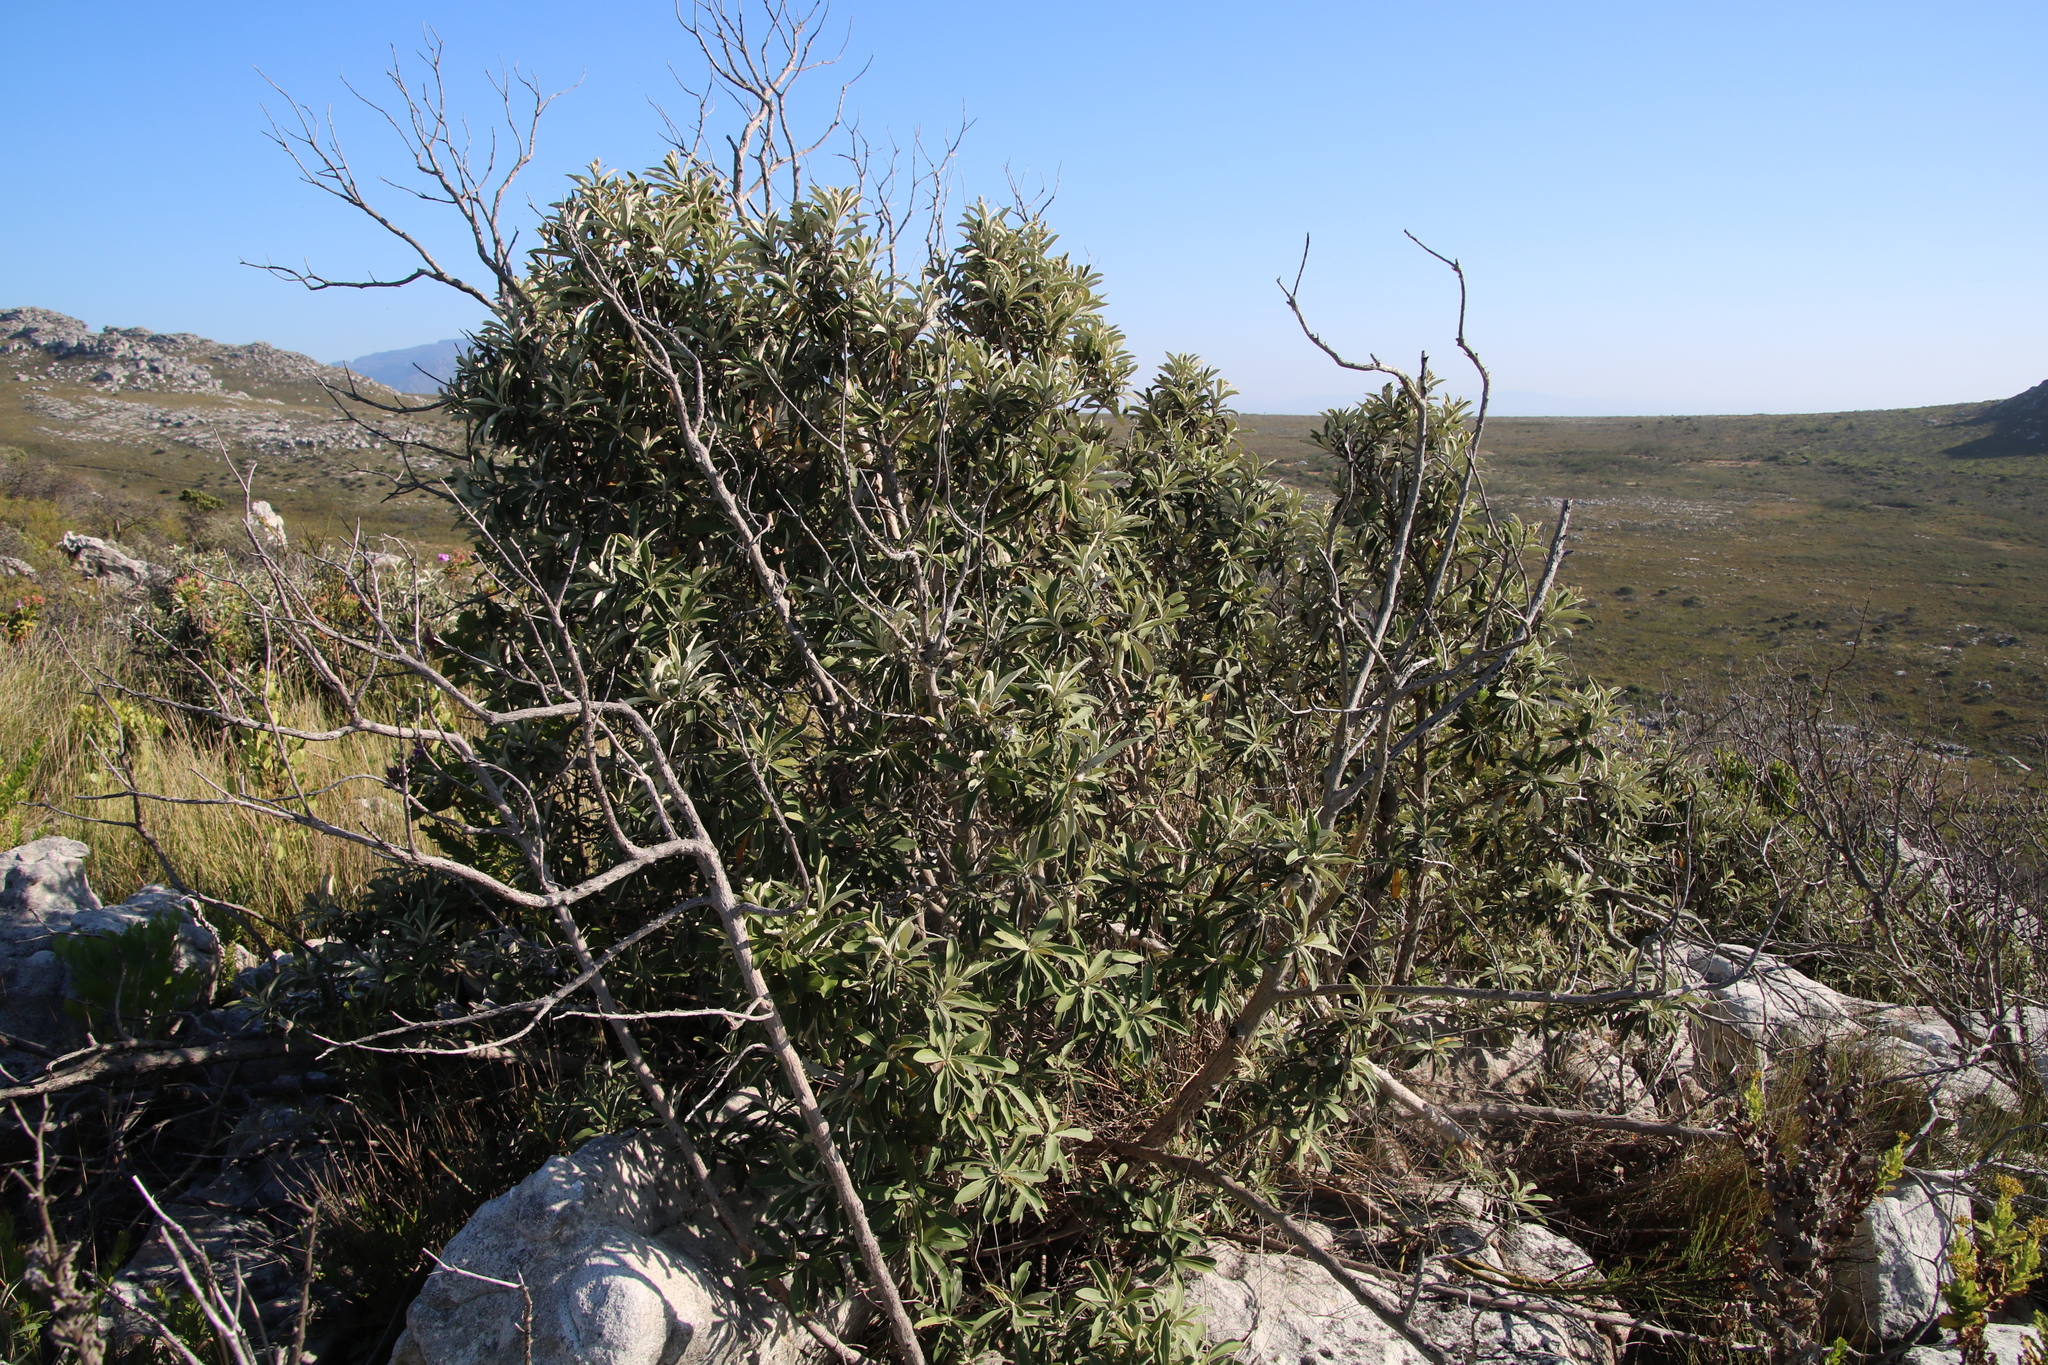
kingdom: Plantae
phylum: Tracheophyta
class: Magnoliopsida
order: Asterales
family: Asteraceae
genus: Tarchonanthus
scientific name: Tarchonanthus littoralis
